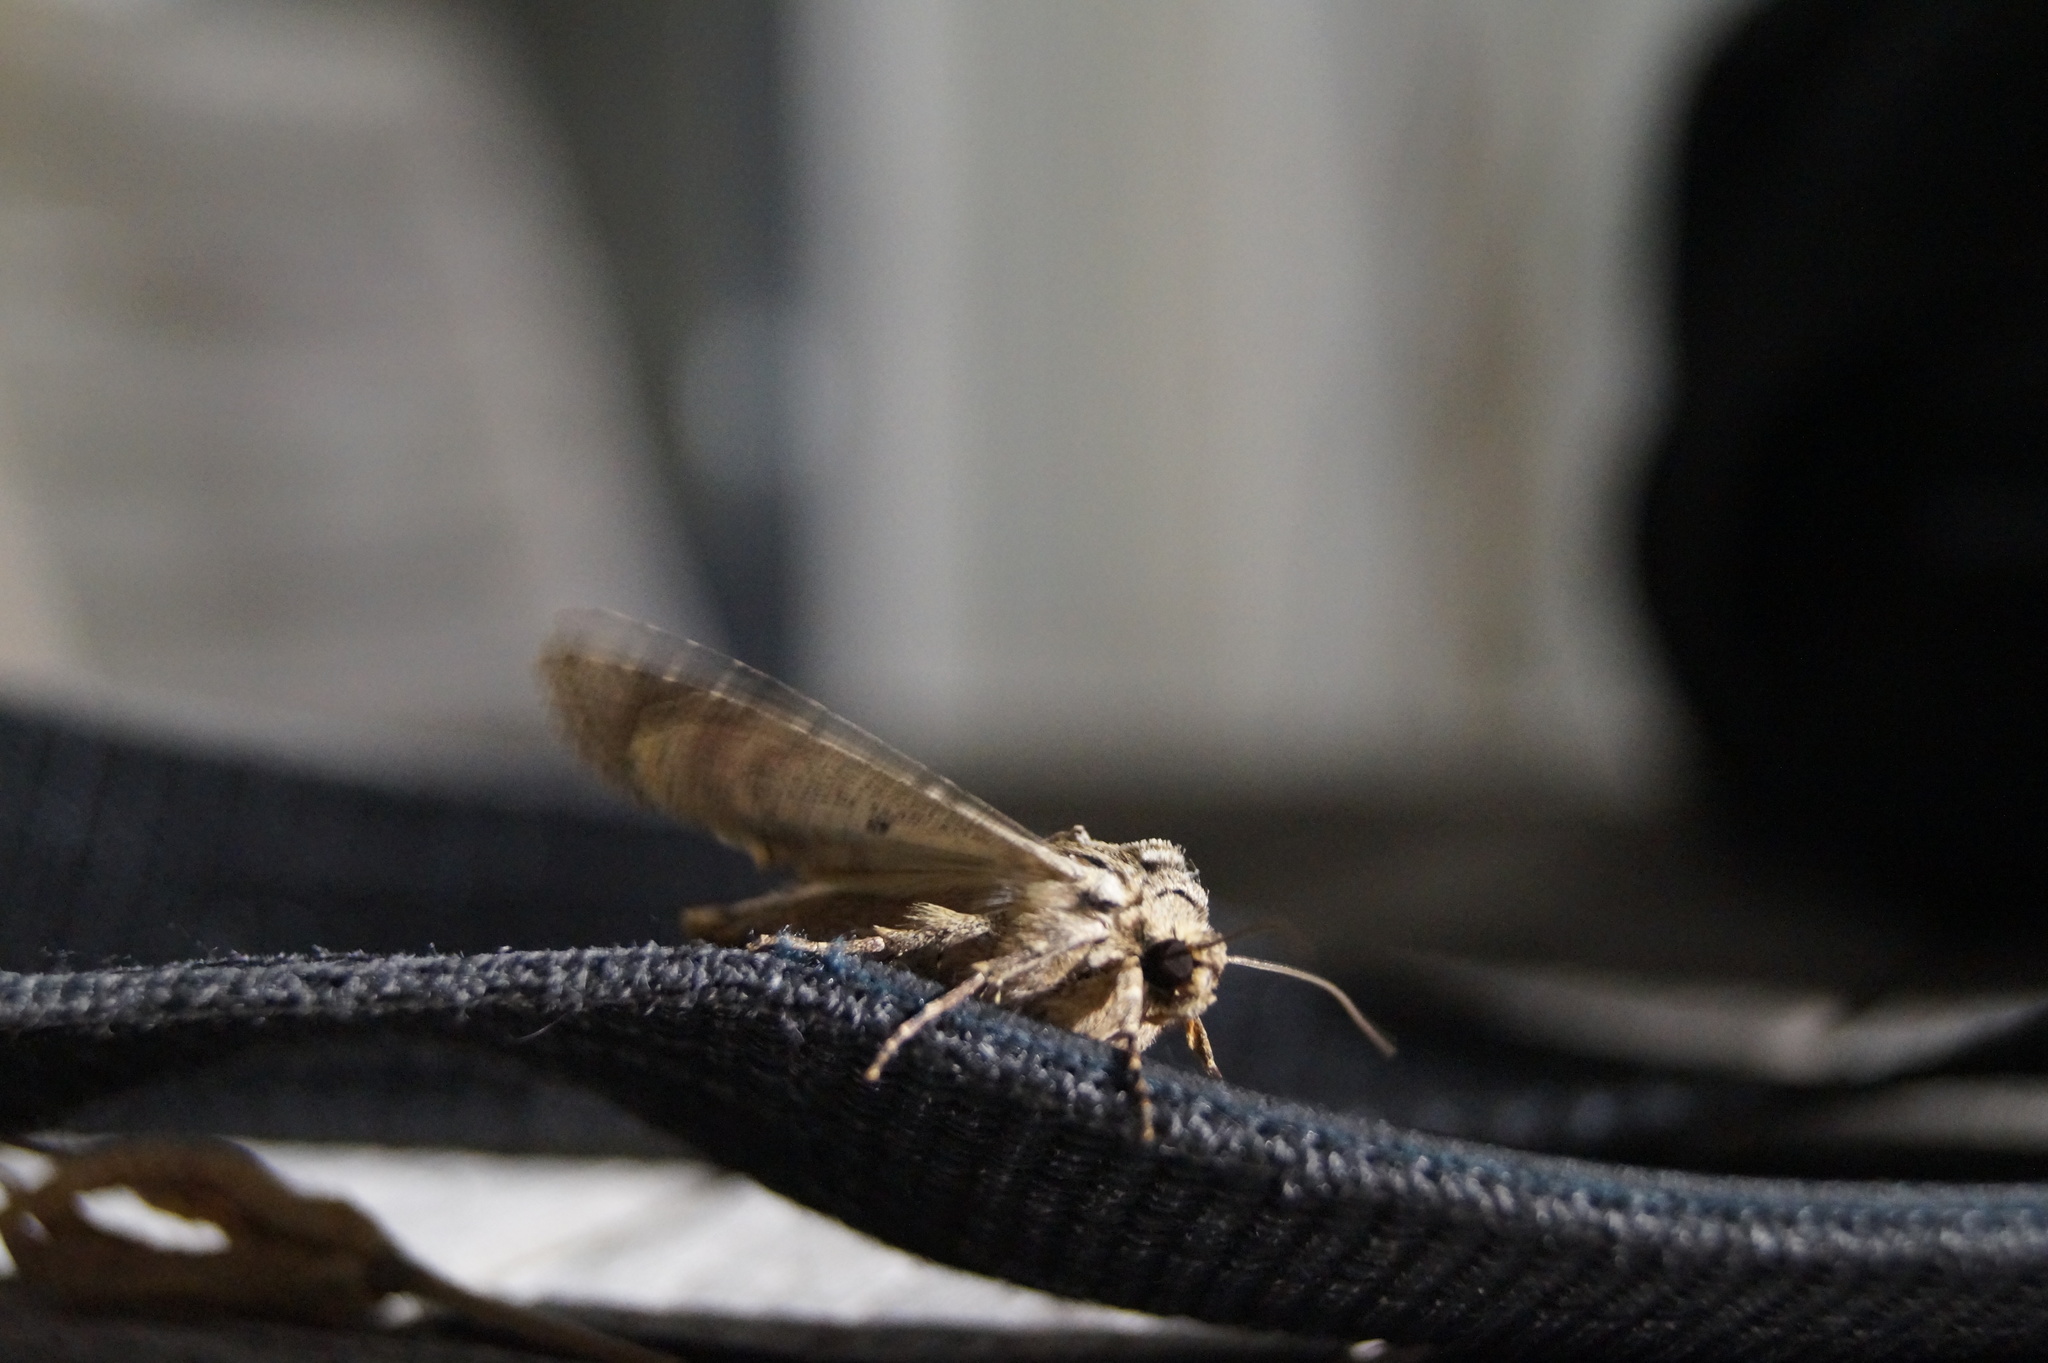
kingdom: Animalia
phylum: Arthropoda
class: Insecta
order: Lepidoptera
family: Noctuidae
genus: Apamea
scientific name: Apamea monoglypha
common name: Dark arches
